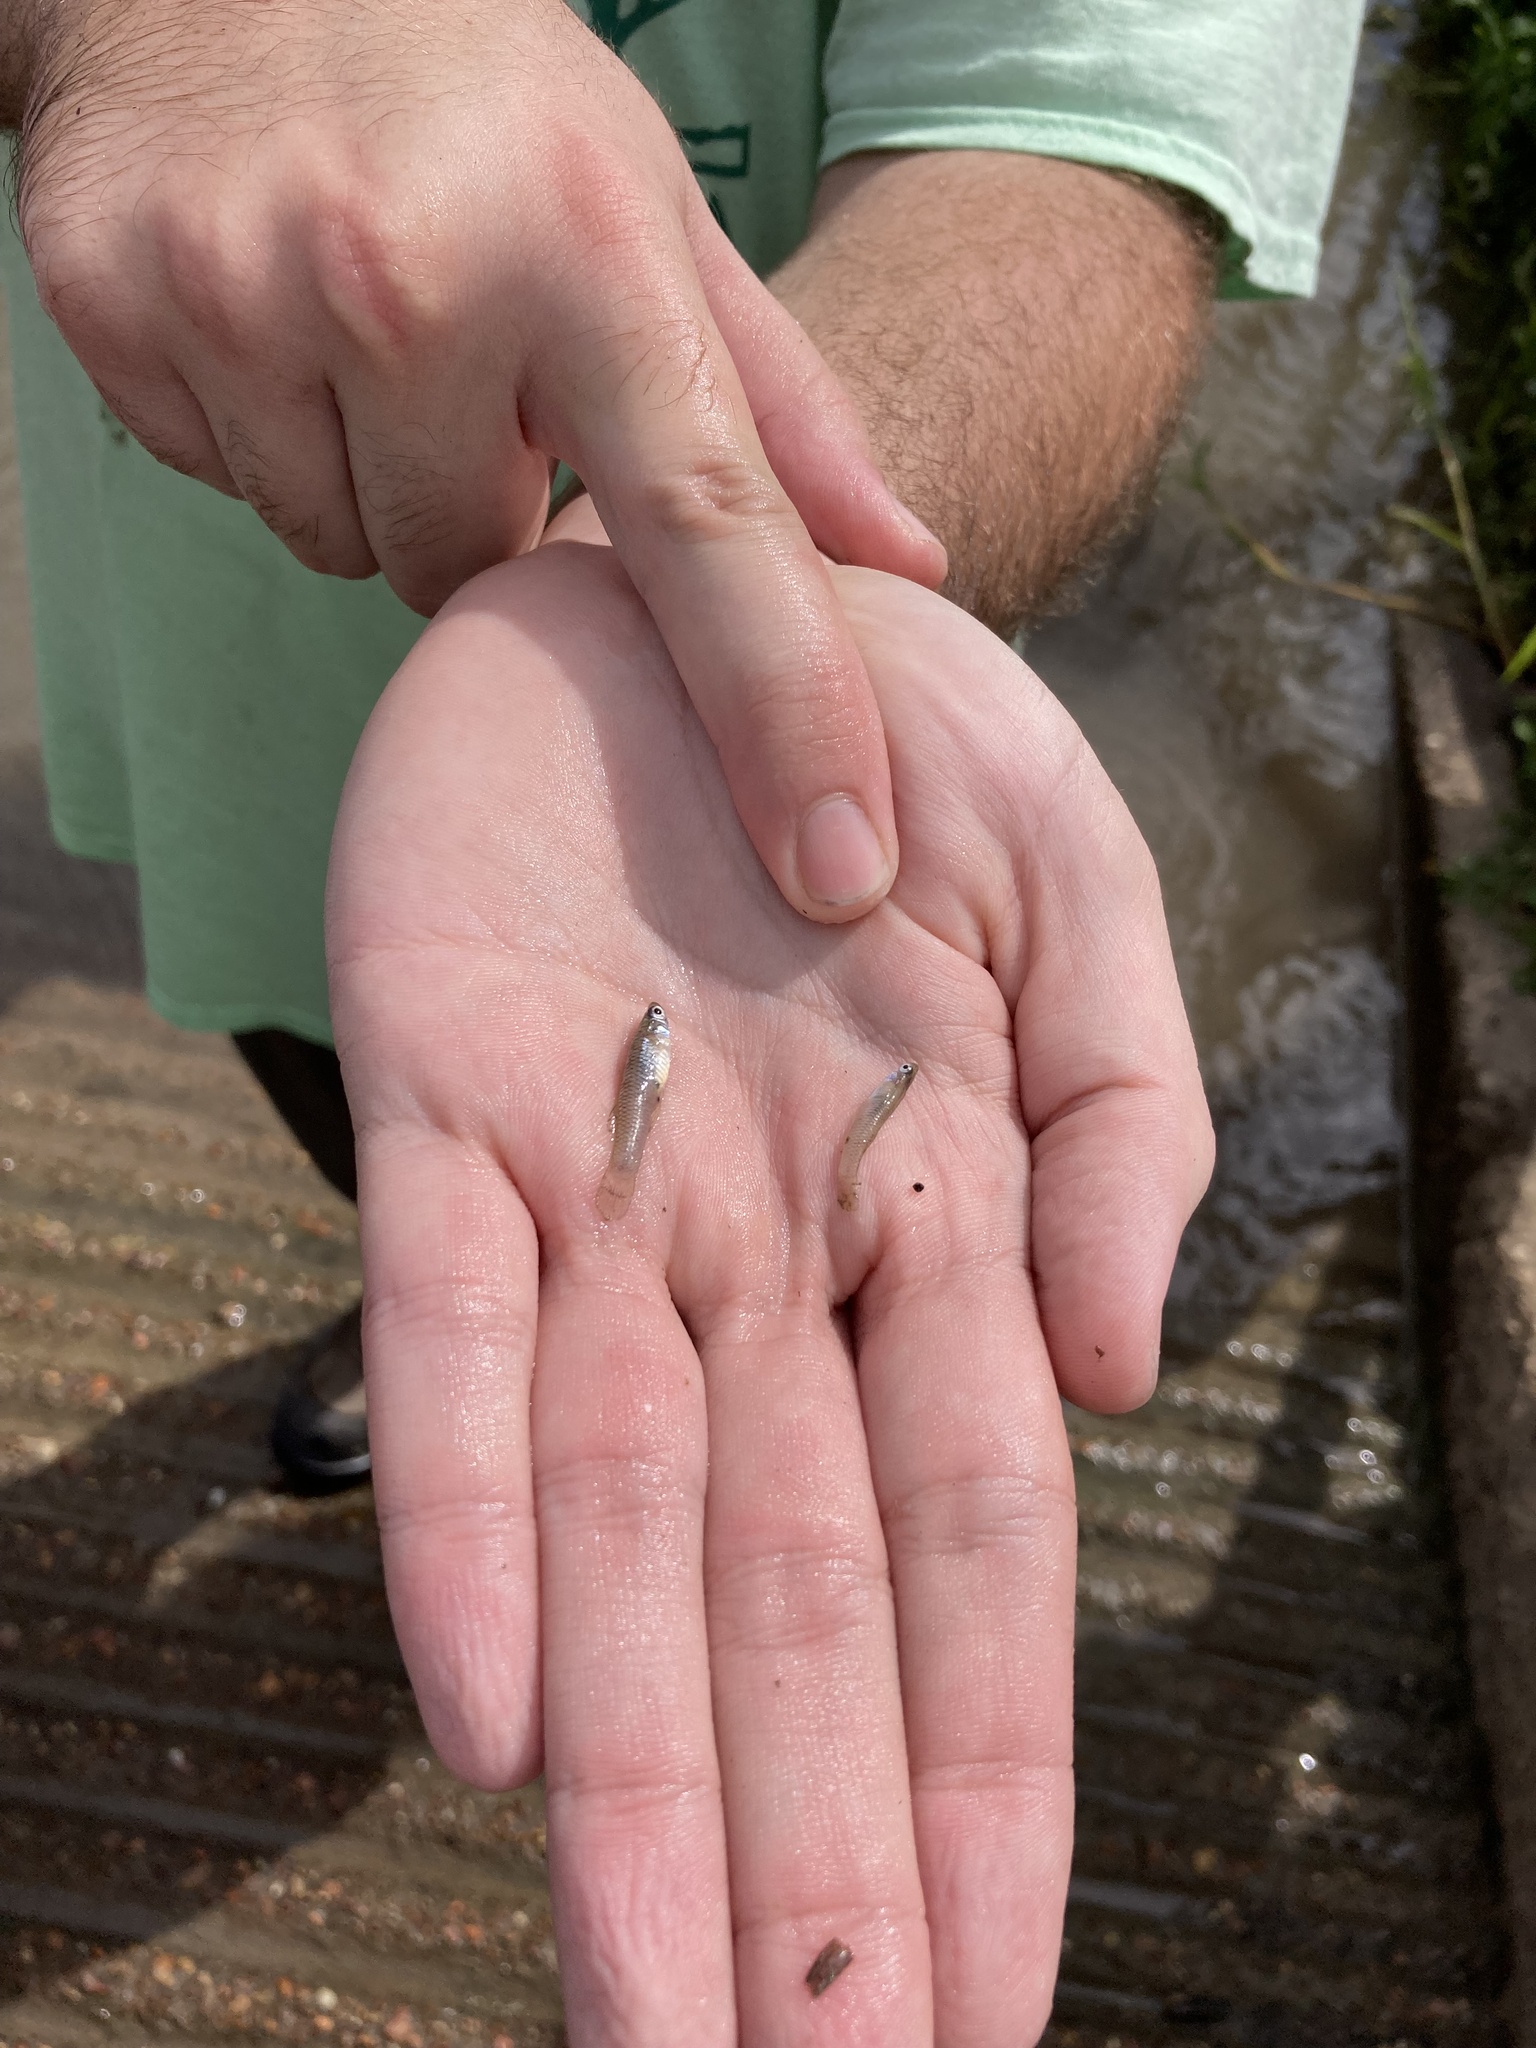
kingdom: Animalia
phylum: Chordata
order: Cyprinodontiformes
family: Poeciliidae
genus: Gambusia
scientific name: Gambusia
